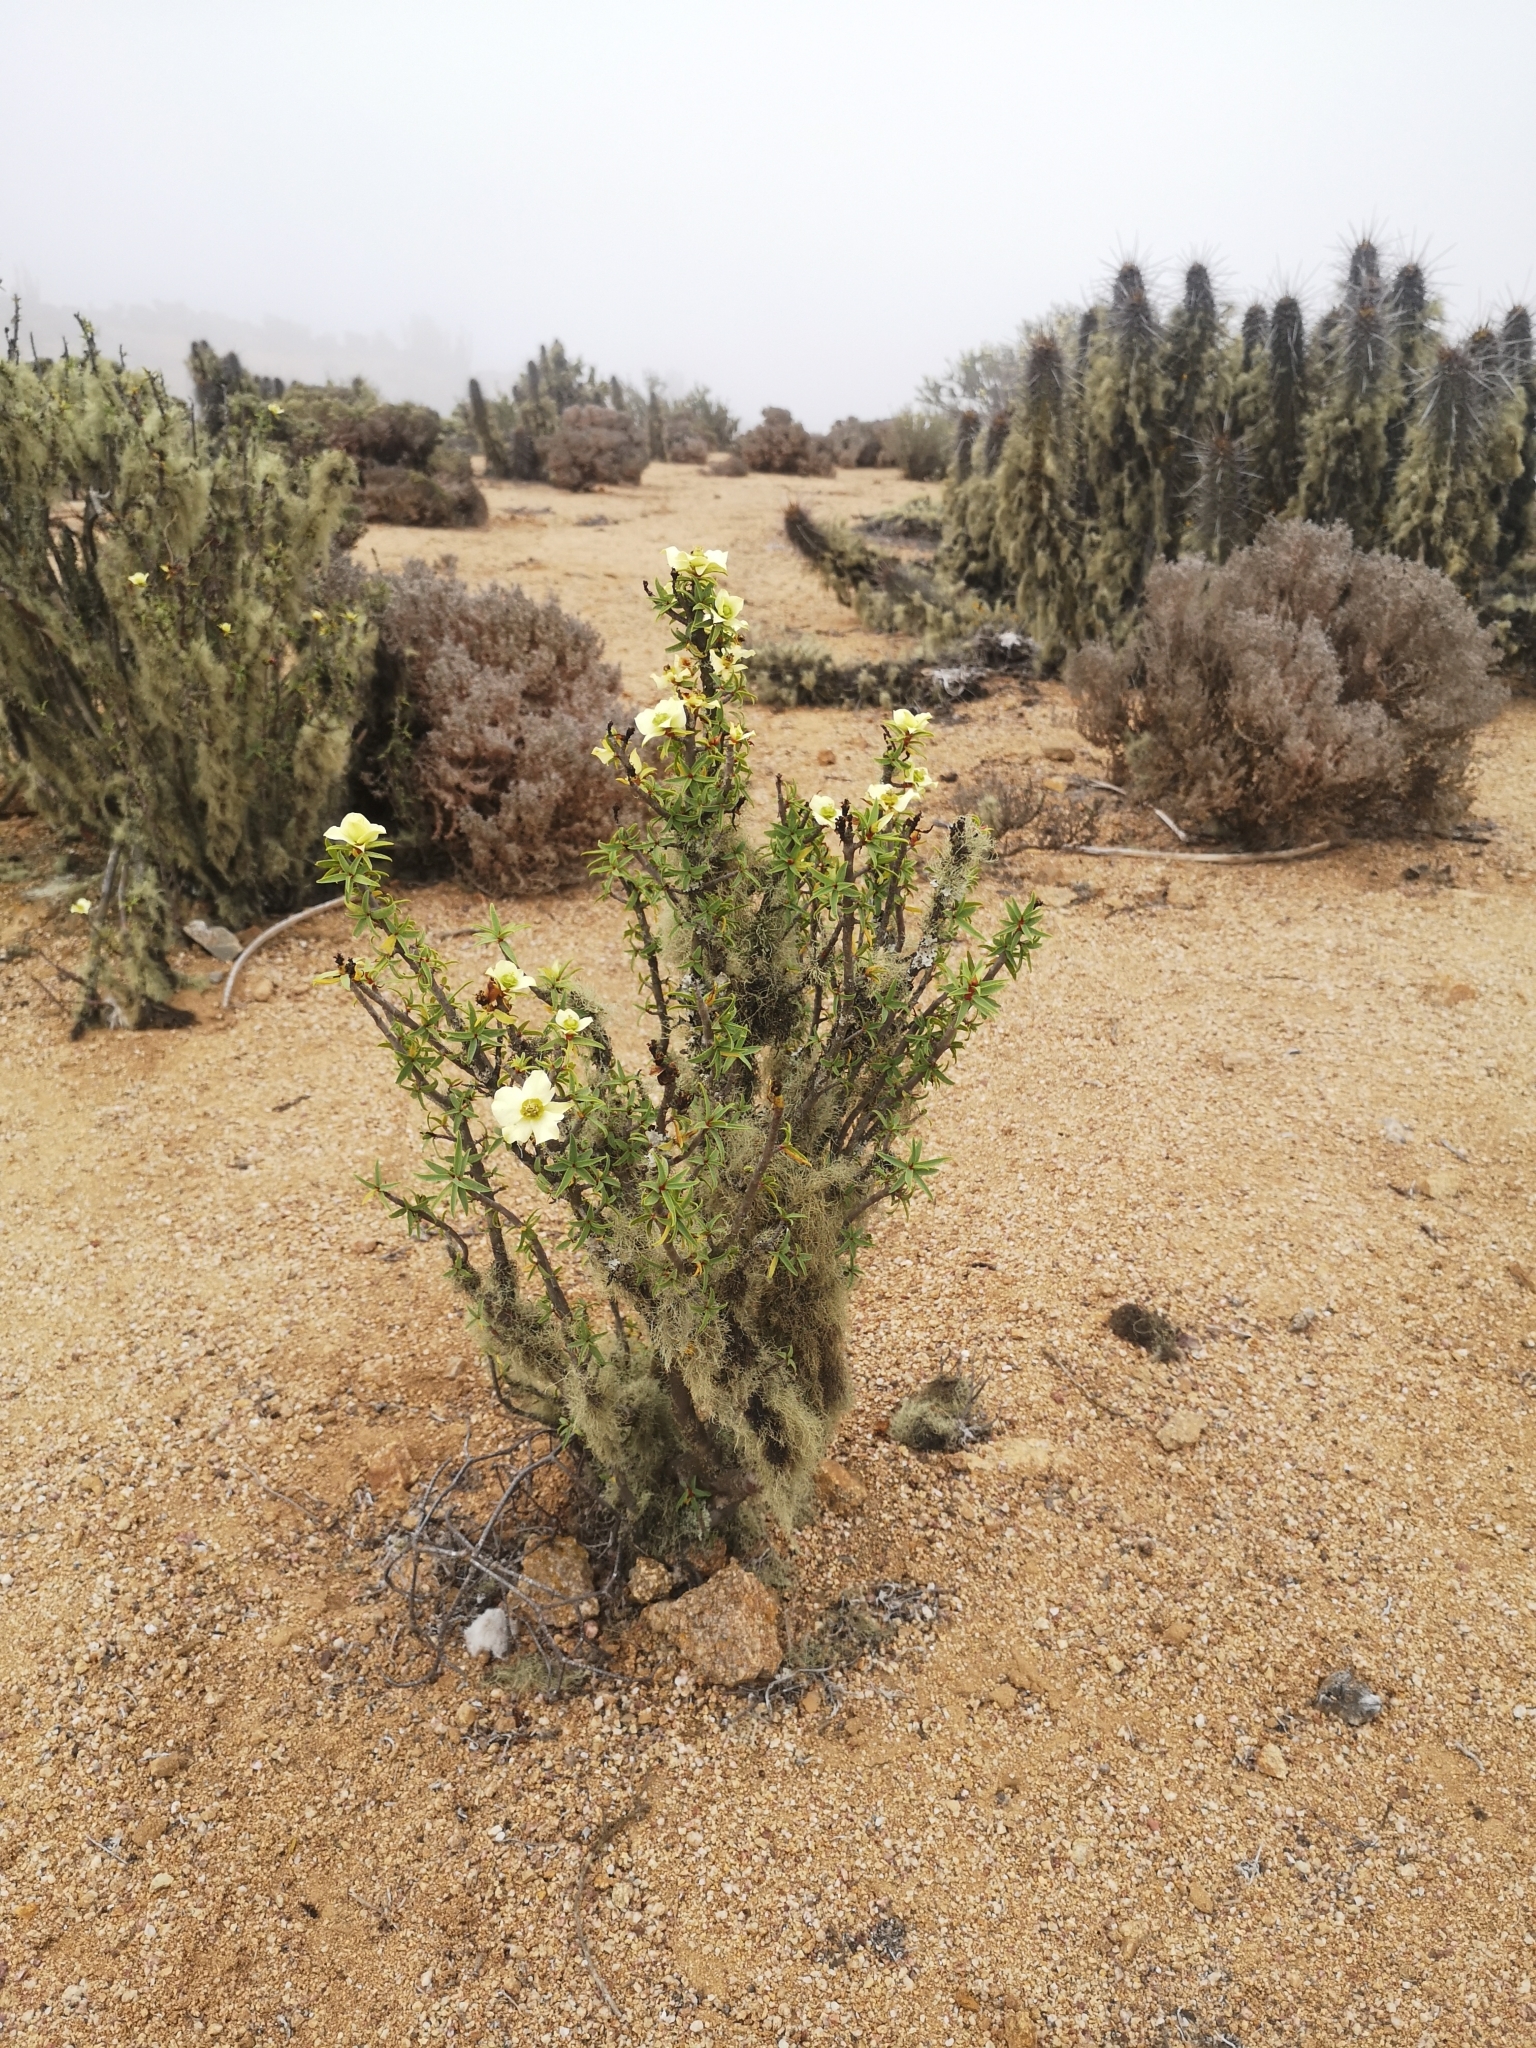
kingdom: Plantae
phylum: Tracheophyta
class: Magnoliopsida
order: Malpighiales
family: Euphorbiaceae
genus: Euphorbia
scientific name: Euphorbia lactiflua
